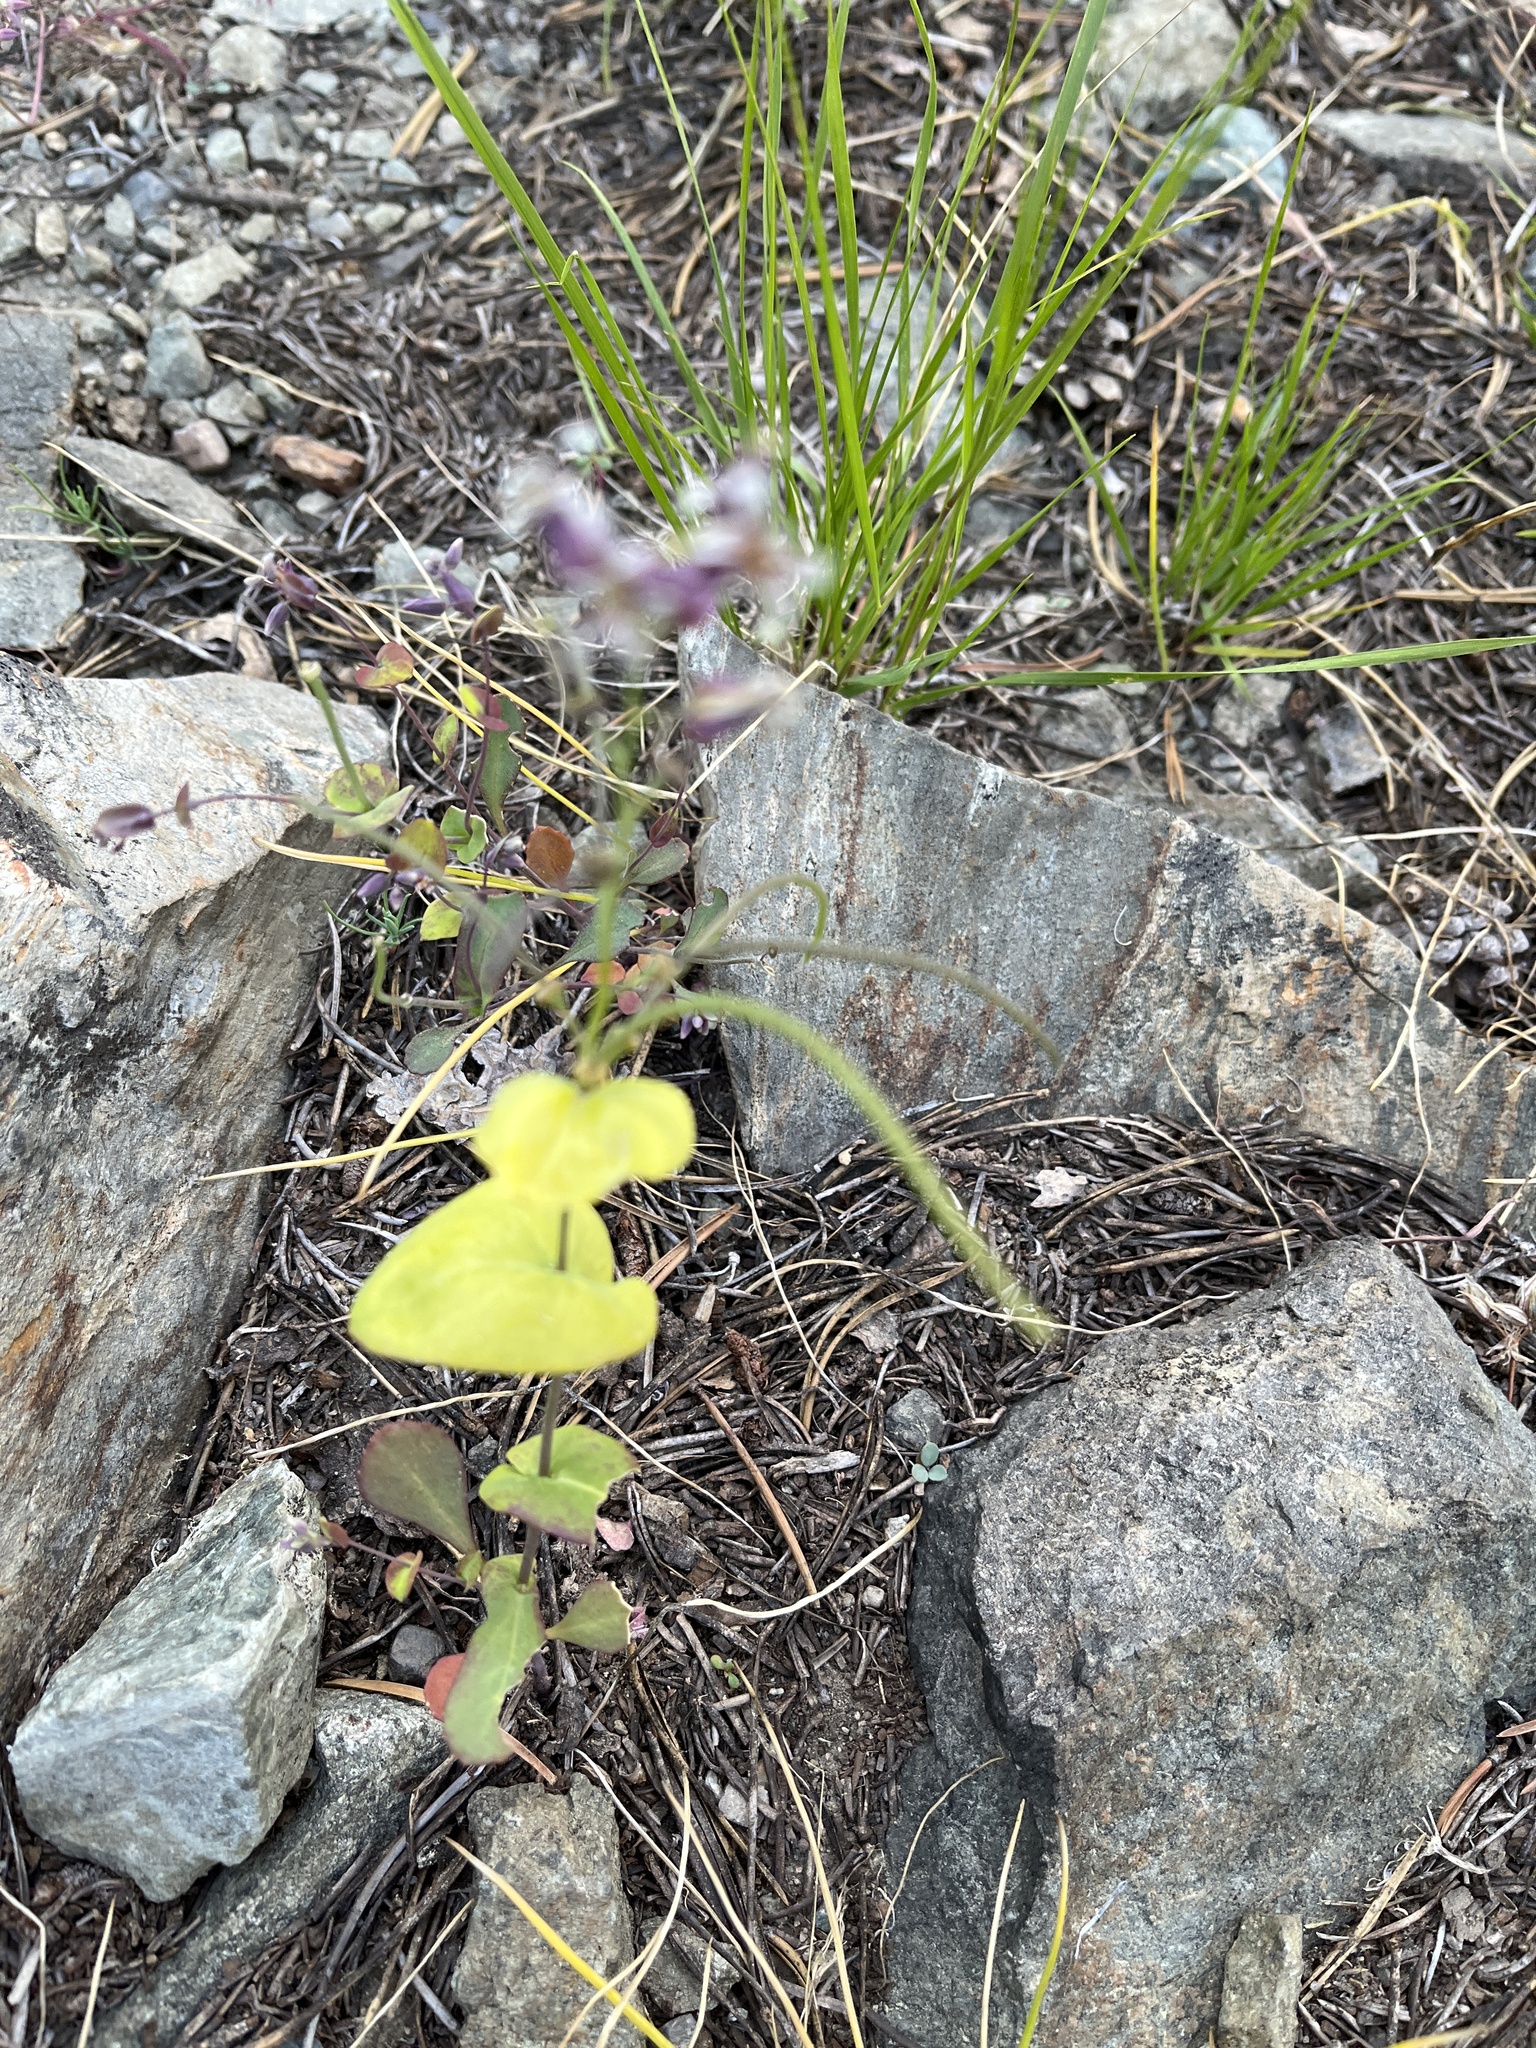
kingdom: Plantae
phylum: Tracheophyta
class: Magnoliopsida
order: Brassicales
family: Brassicaceae
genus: Streptanthus
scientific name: Streptanthus tortuosus
